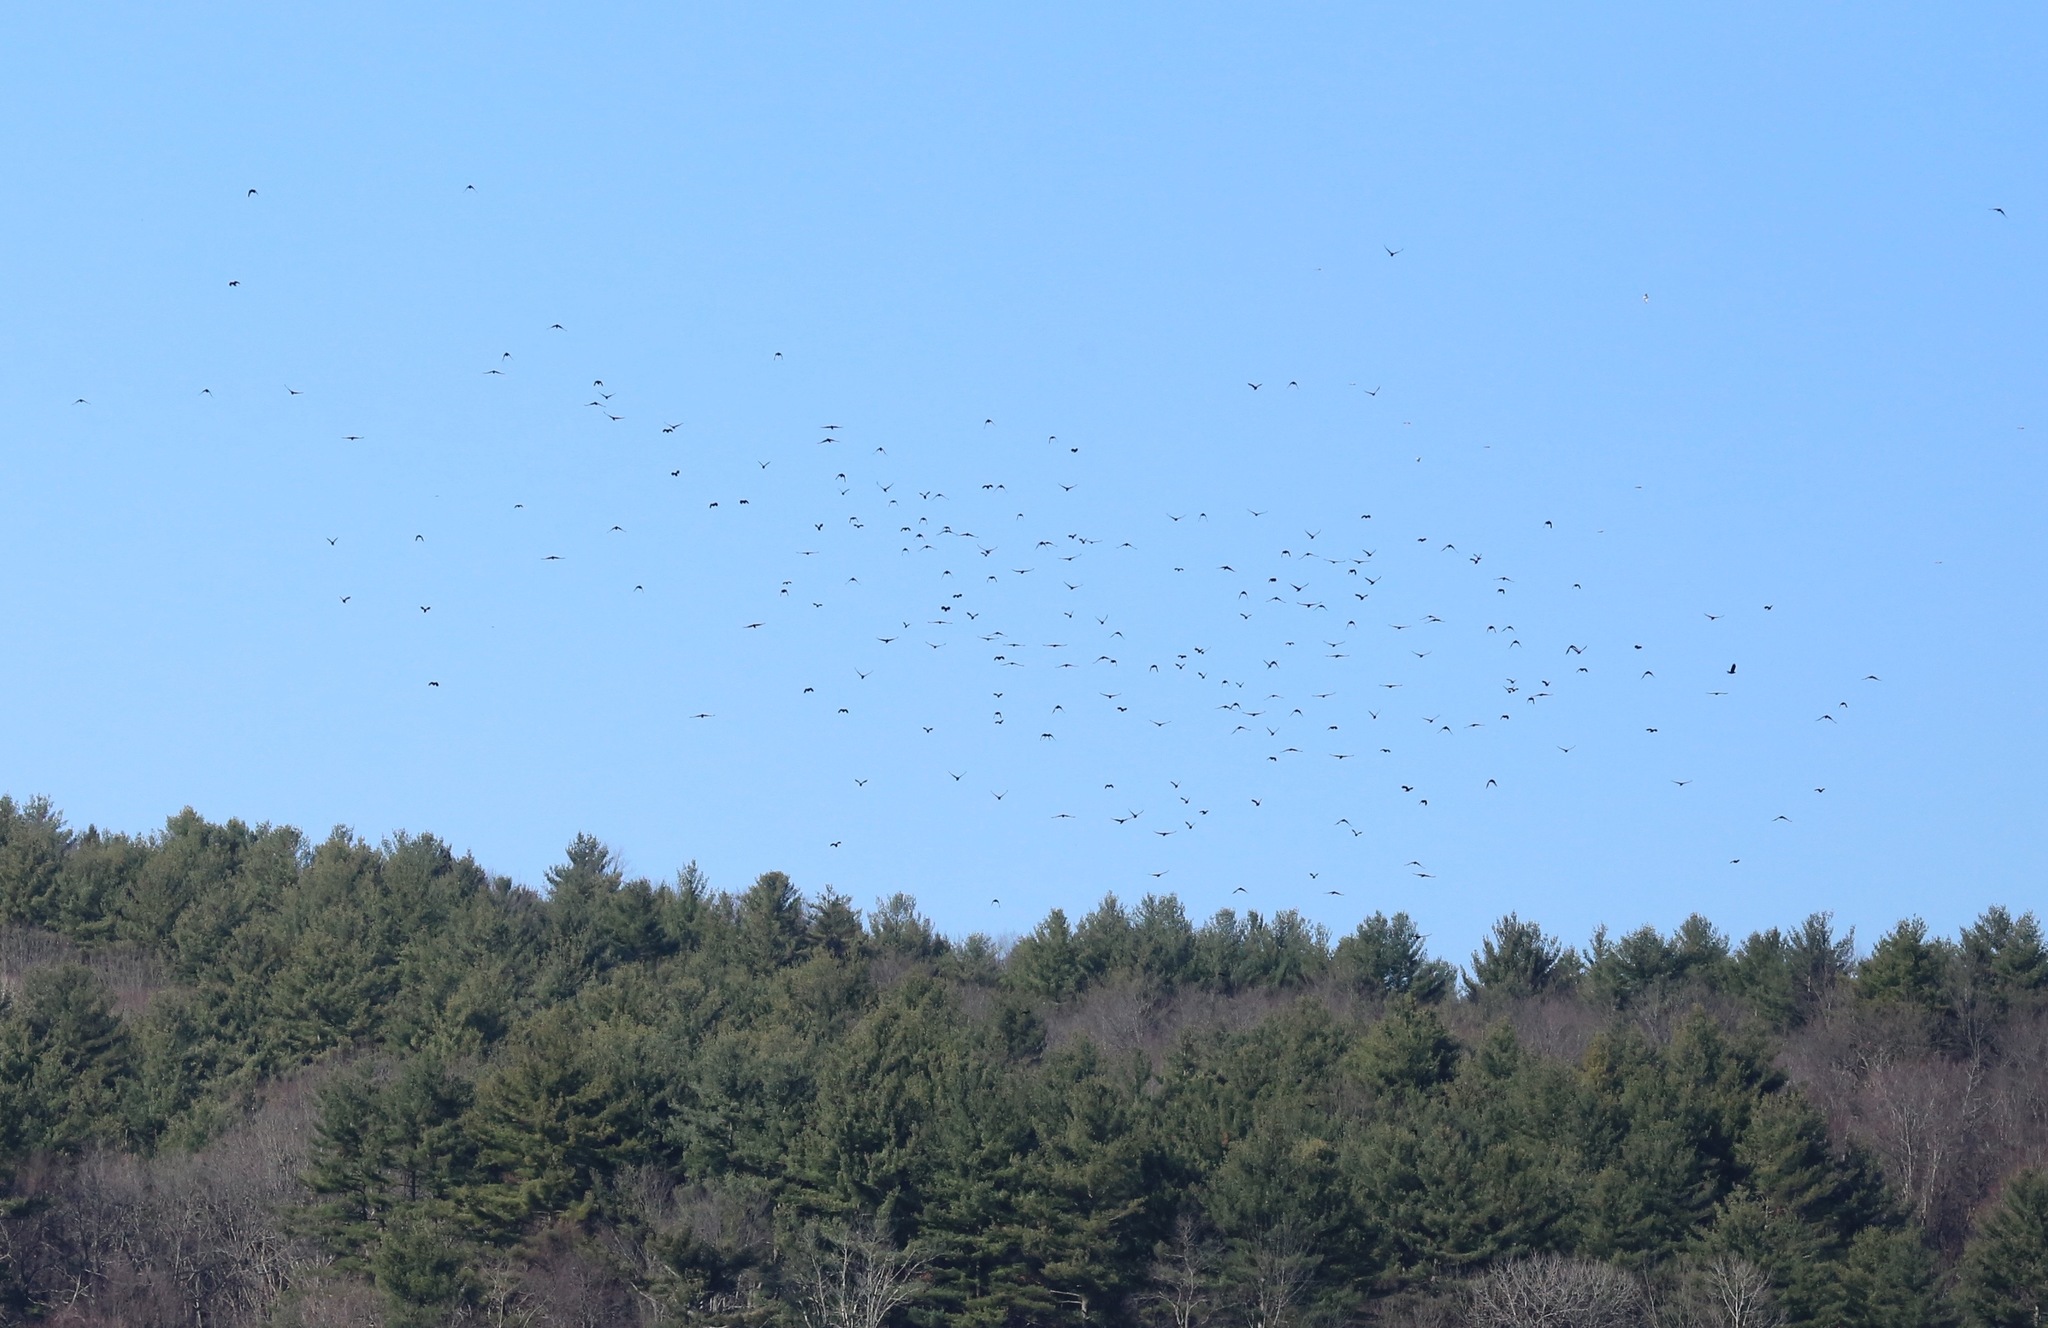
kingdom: Animalia
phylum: Chordata
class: Aves
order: Passeriformes
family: Corvidae
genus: Corvus
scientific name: Corvus brachyrhynchos
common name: American crow
